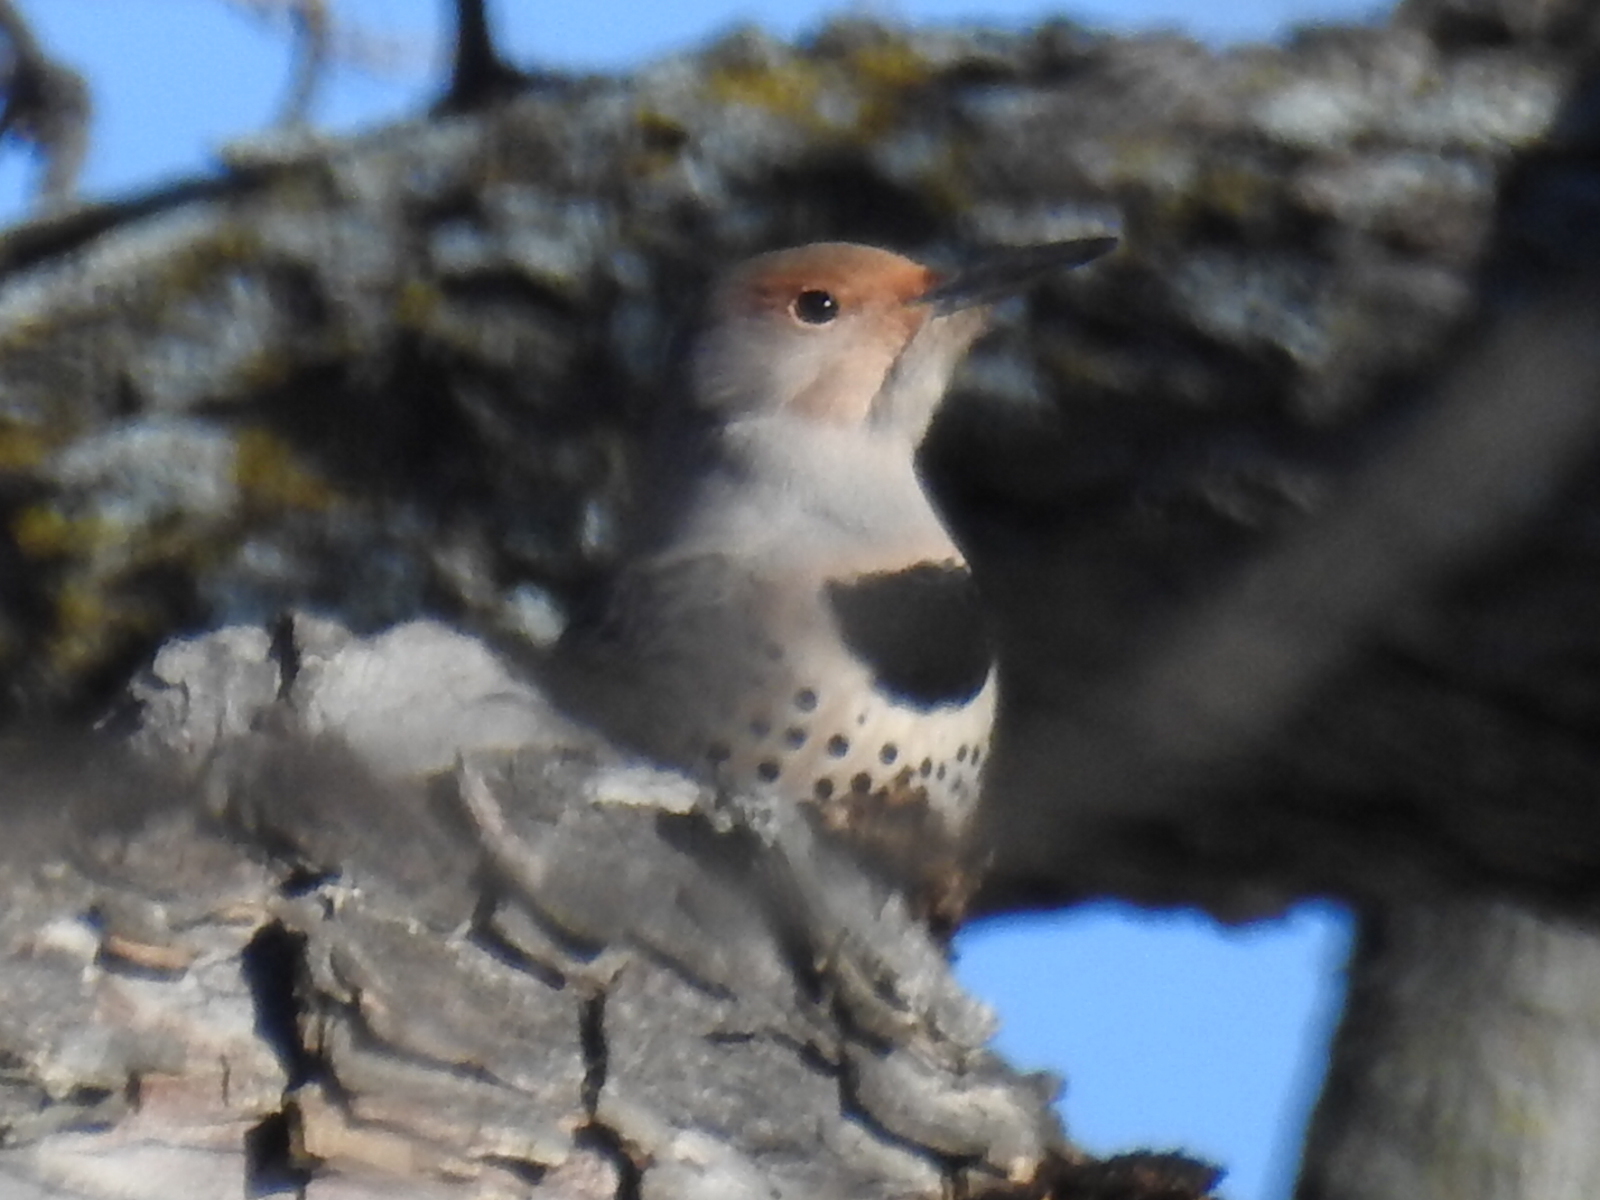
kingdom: Animalia
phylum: Chordata
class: Aves
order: Piciformes
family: Picidae
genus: Colaptes
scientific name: Colaptes auratus
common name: Northern flicker
